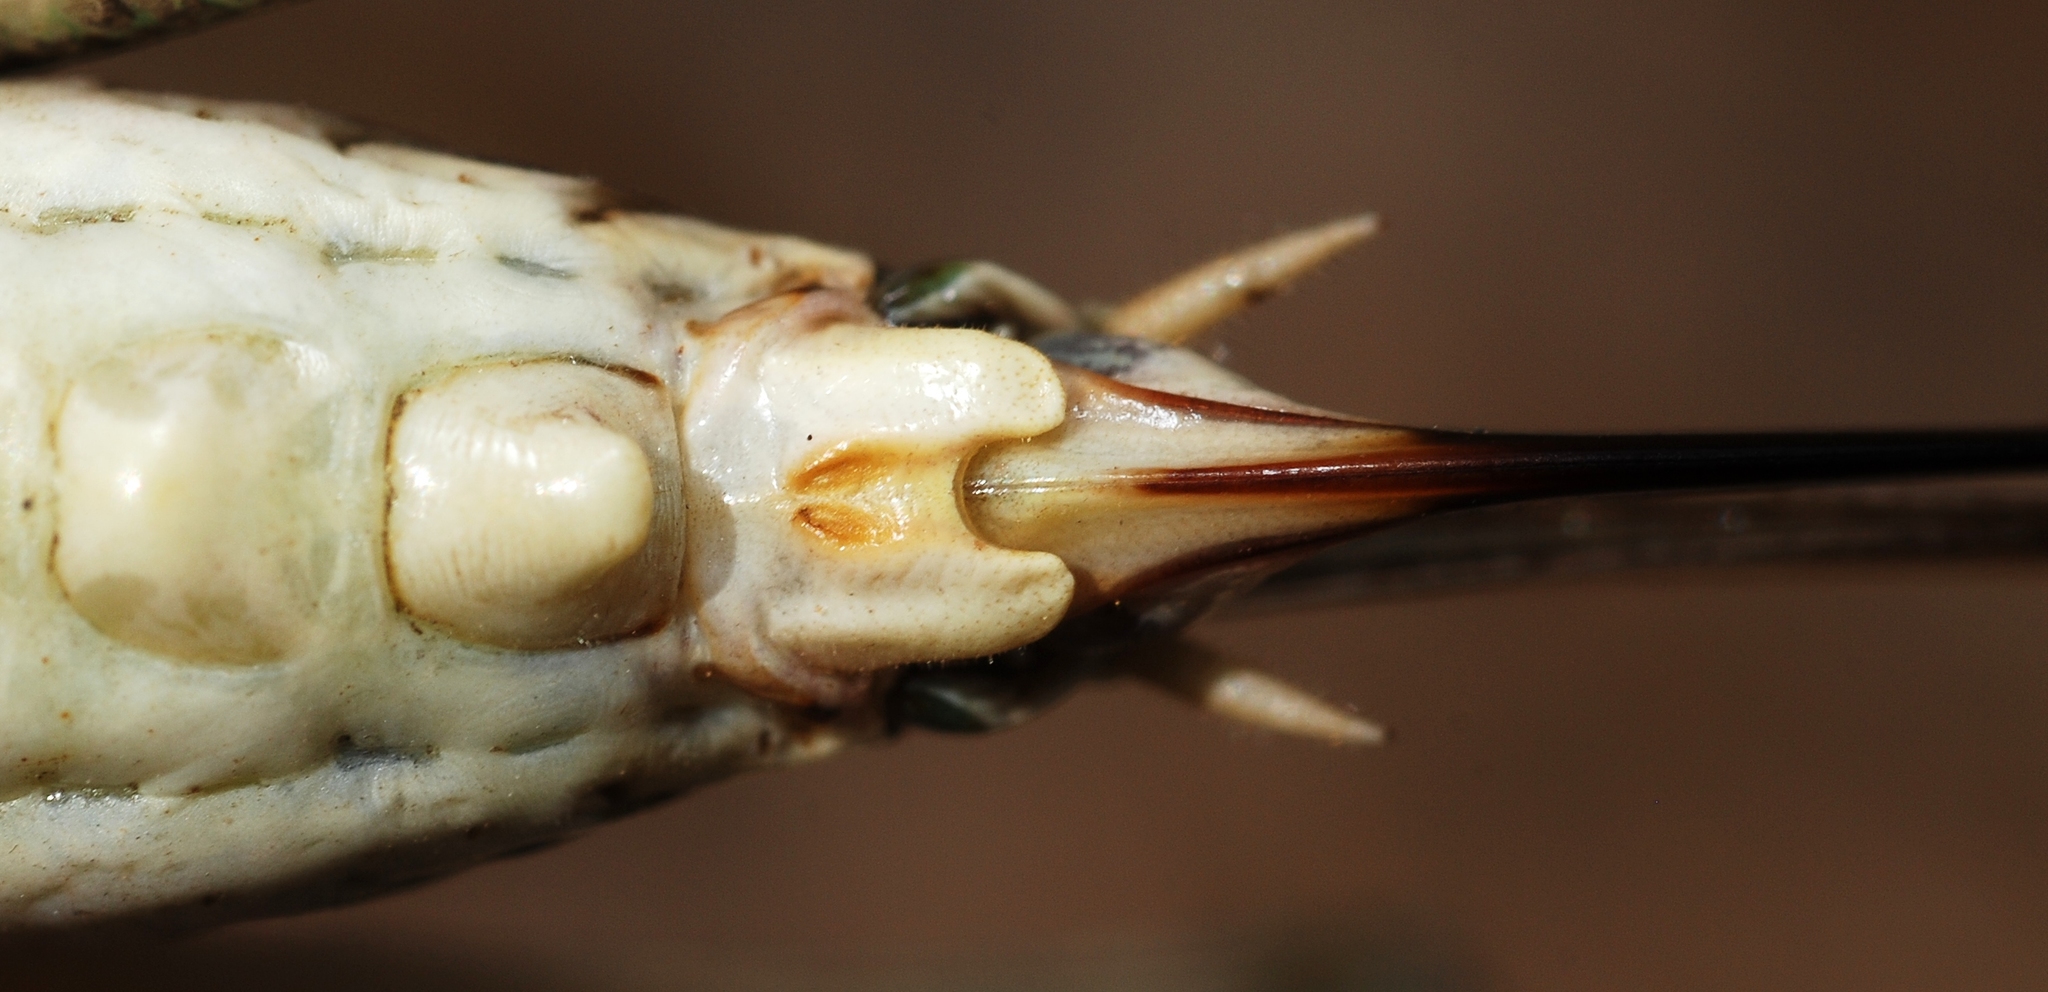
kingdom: Animalia
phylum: Arthropoda
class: Insecta
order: Orthoptera
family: Tettigoniidae
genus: Platycleis
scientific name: Platycleis affinis
